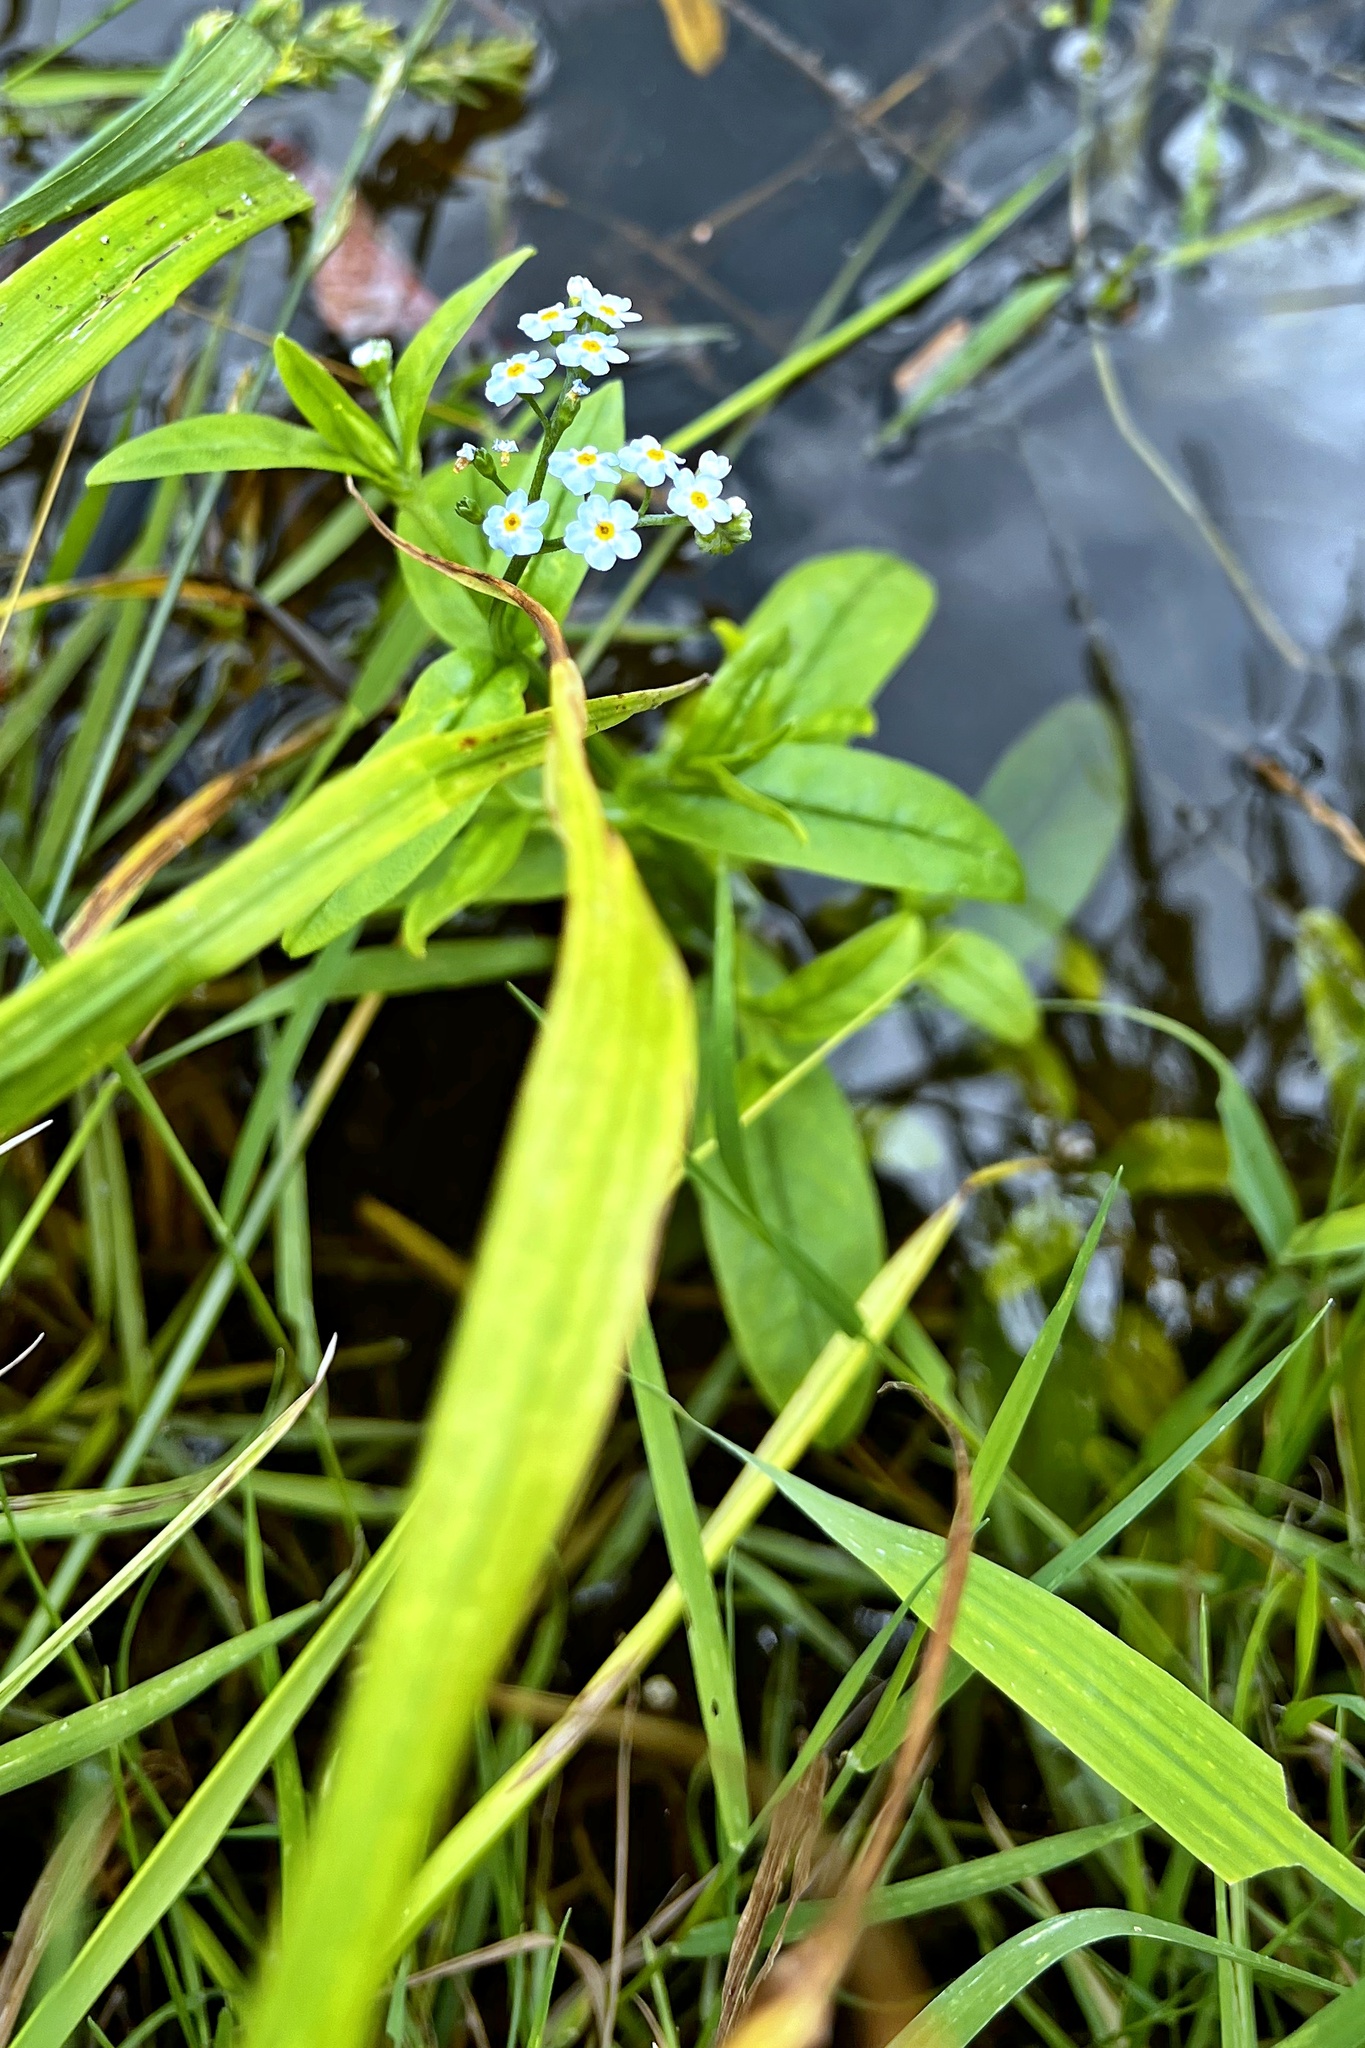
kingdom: Plantae
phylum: Tracheophyta
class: Magnoliopsida
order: Boraginales
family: Boraginaceae
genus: Myosotis
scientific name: Myosotis scorpioides
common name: Water forget-me-not
